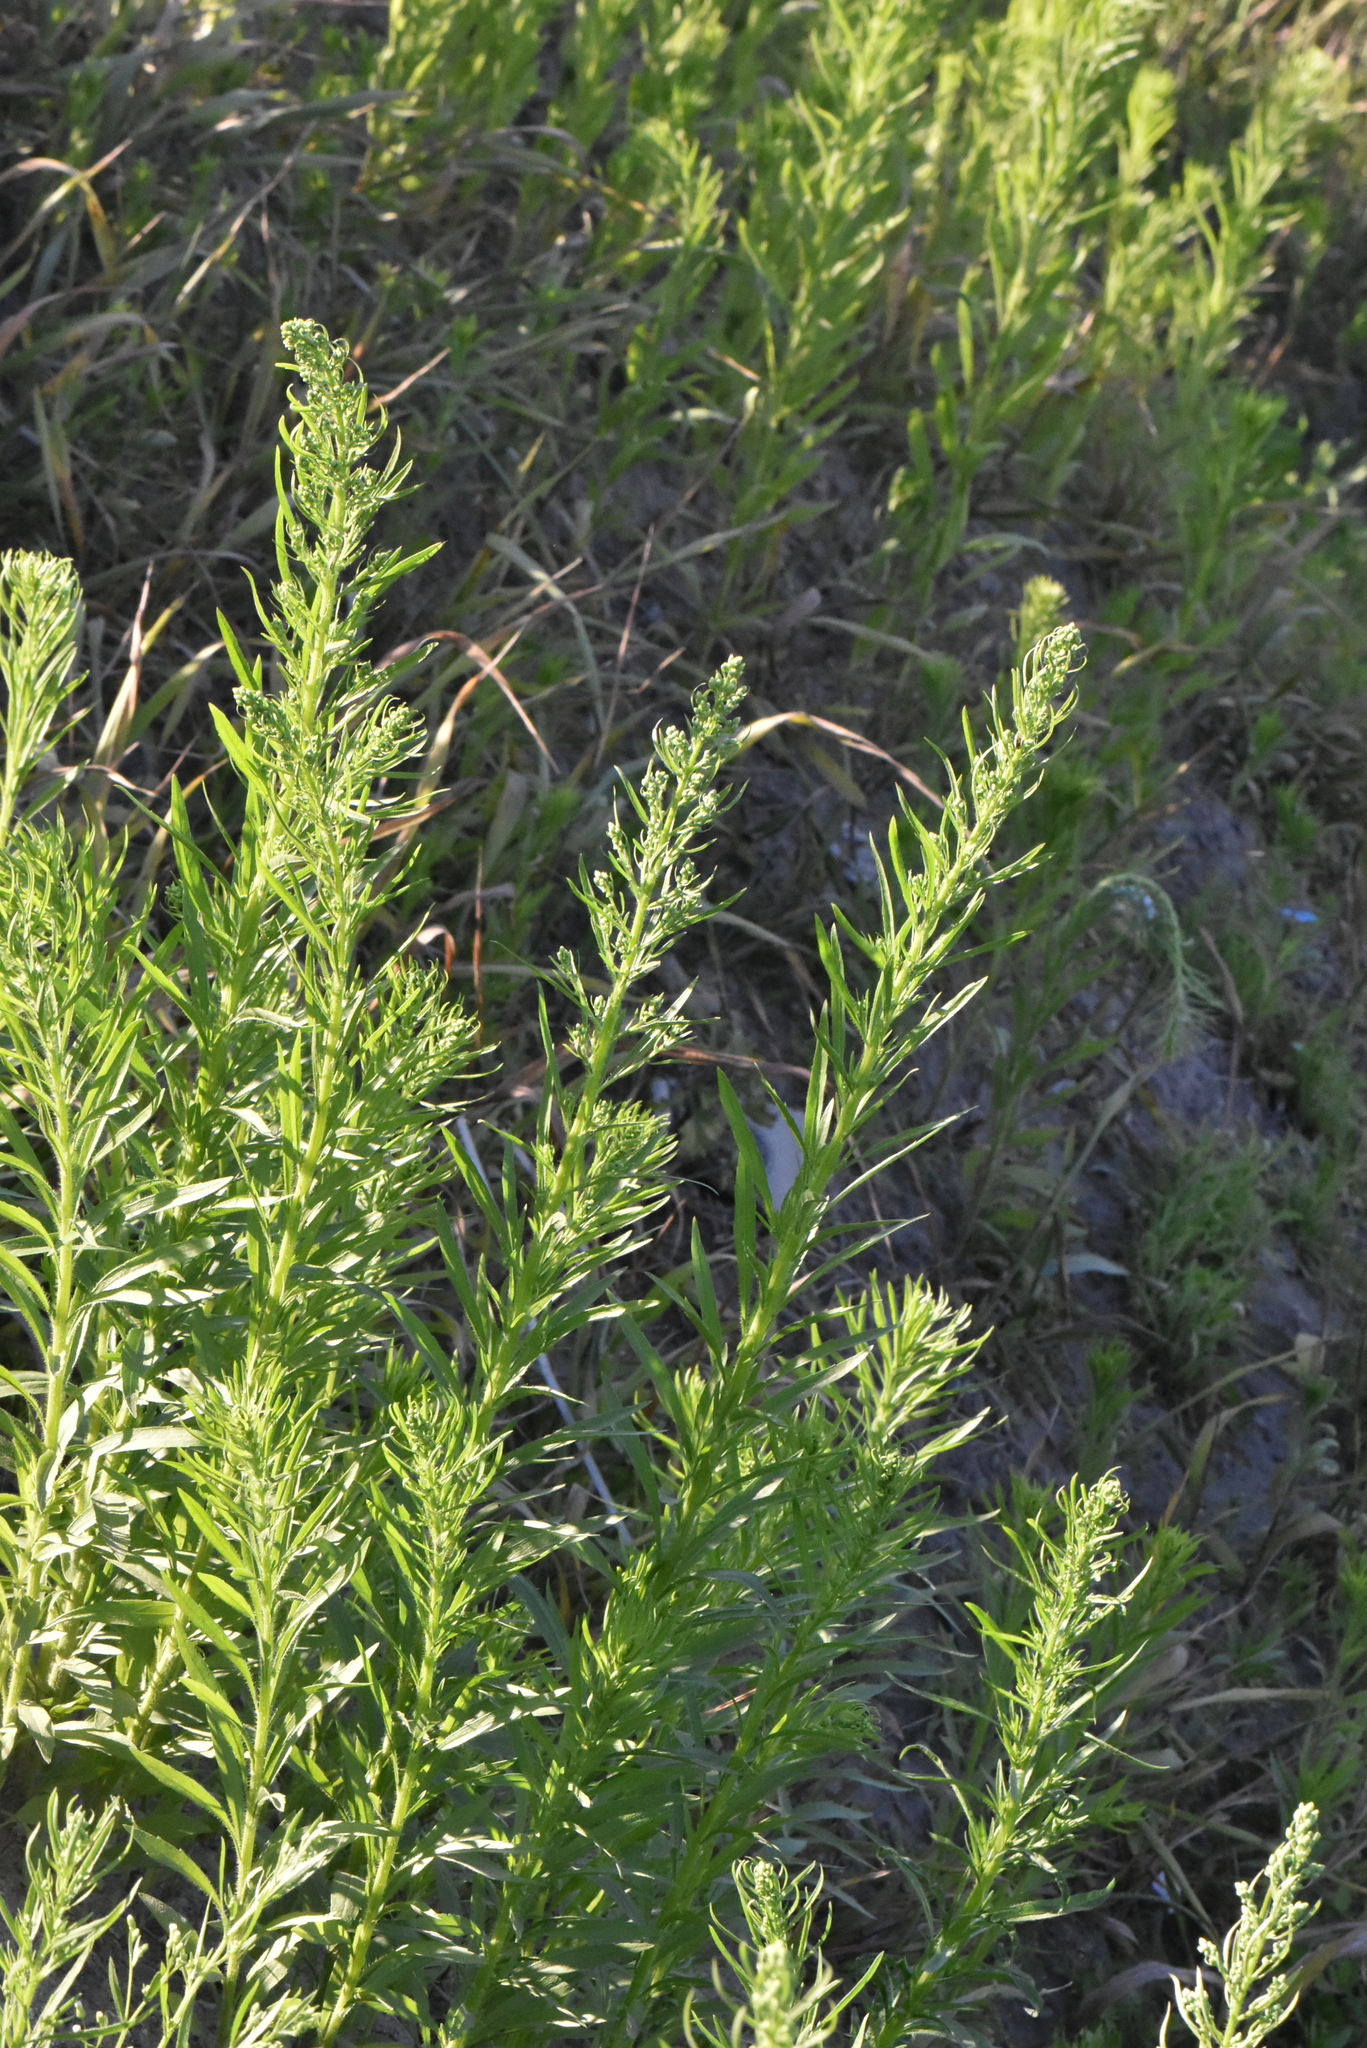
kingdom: Plantae
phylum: Tracheophyta
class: Magnoliopsida
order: Asterales
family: Asteraceae
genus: Erigeron
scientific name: Erigeron canadensis
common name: Canadian fleabane
